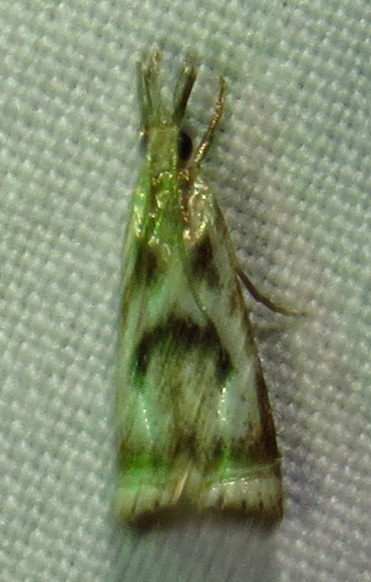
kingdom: Animalia
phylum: Arthropoda
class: Insecta
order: Lepidoptera
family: Crambidae
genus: Microcrambus
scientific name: Microcrambus elegans
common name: Elegant grass-veneer
